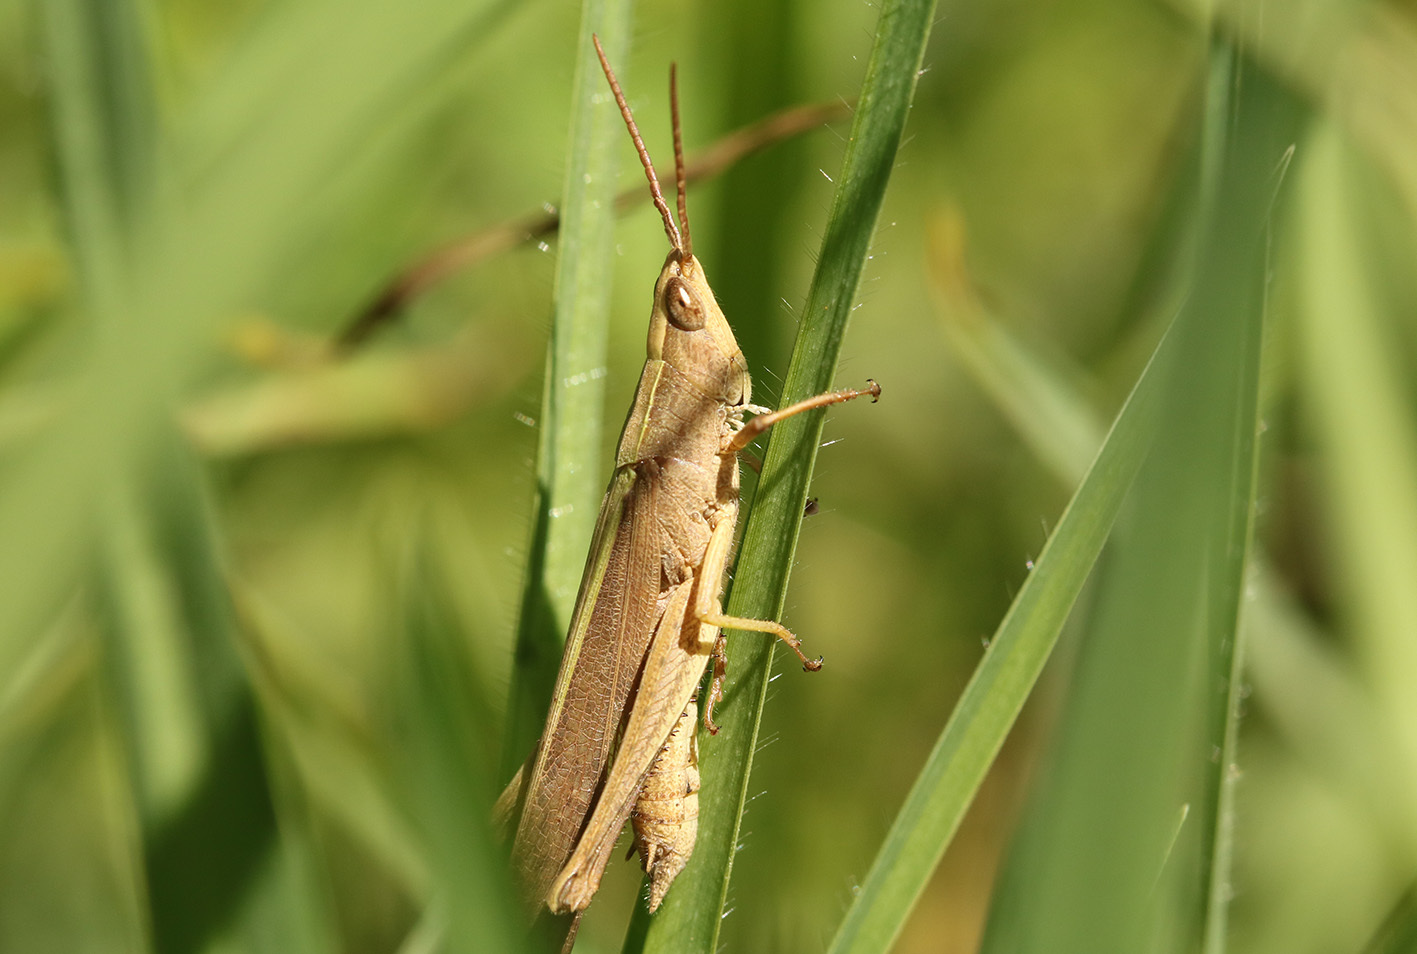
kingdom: Animalia
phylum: Arthropoda
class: Insecta
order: Orthoptera
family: Acrididae
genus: Metaleptea
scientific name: Metaleptea adspersa
